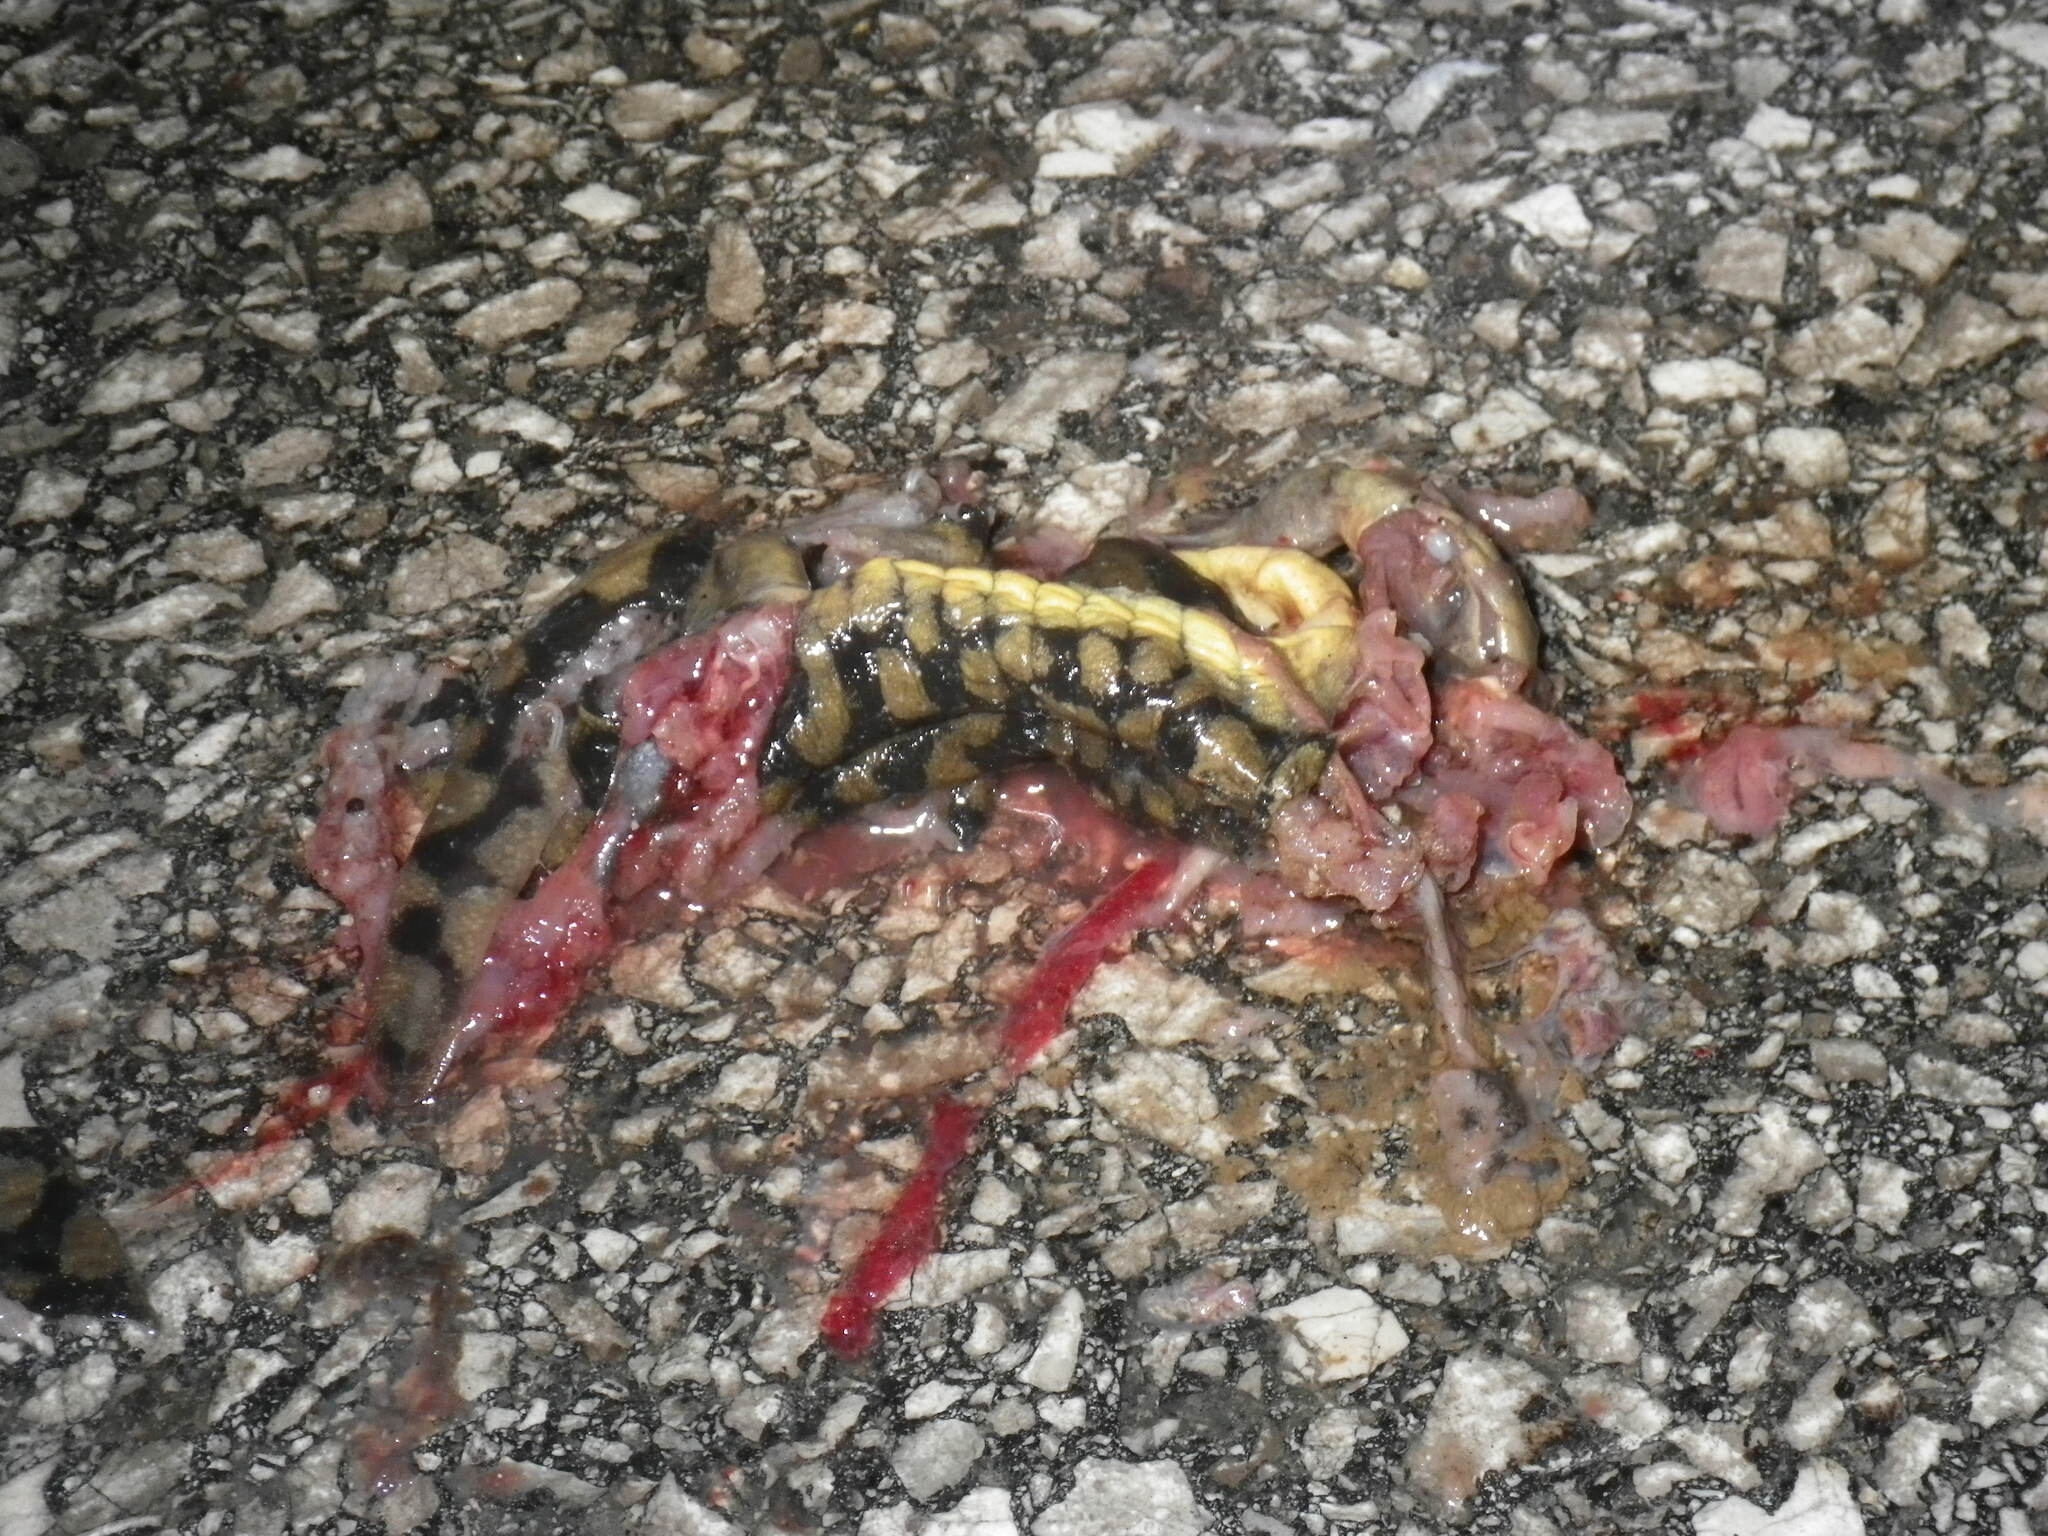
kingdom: Animalia
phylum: Chordata
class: Amphibia
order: Caudata
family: Ambystomatidae
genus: Ambystoma
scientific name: Ambystoma tigrinum
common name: Tiger salamander
